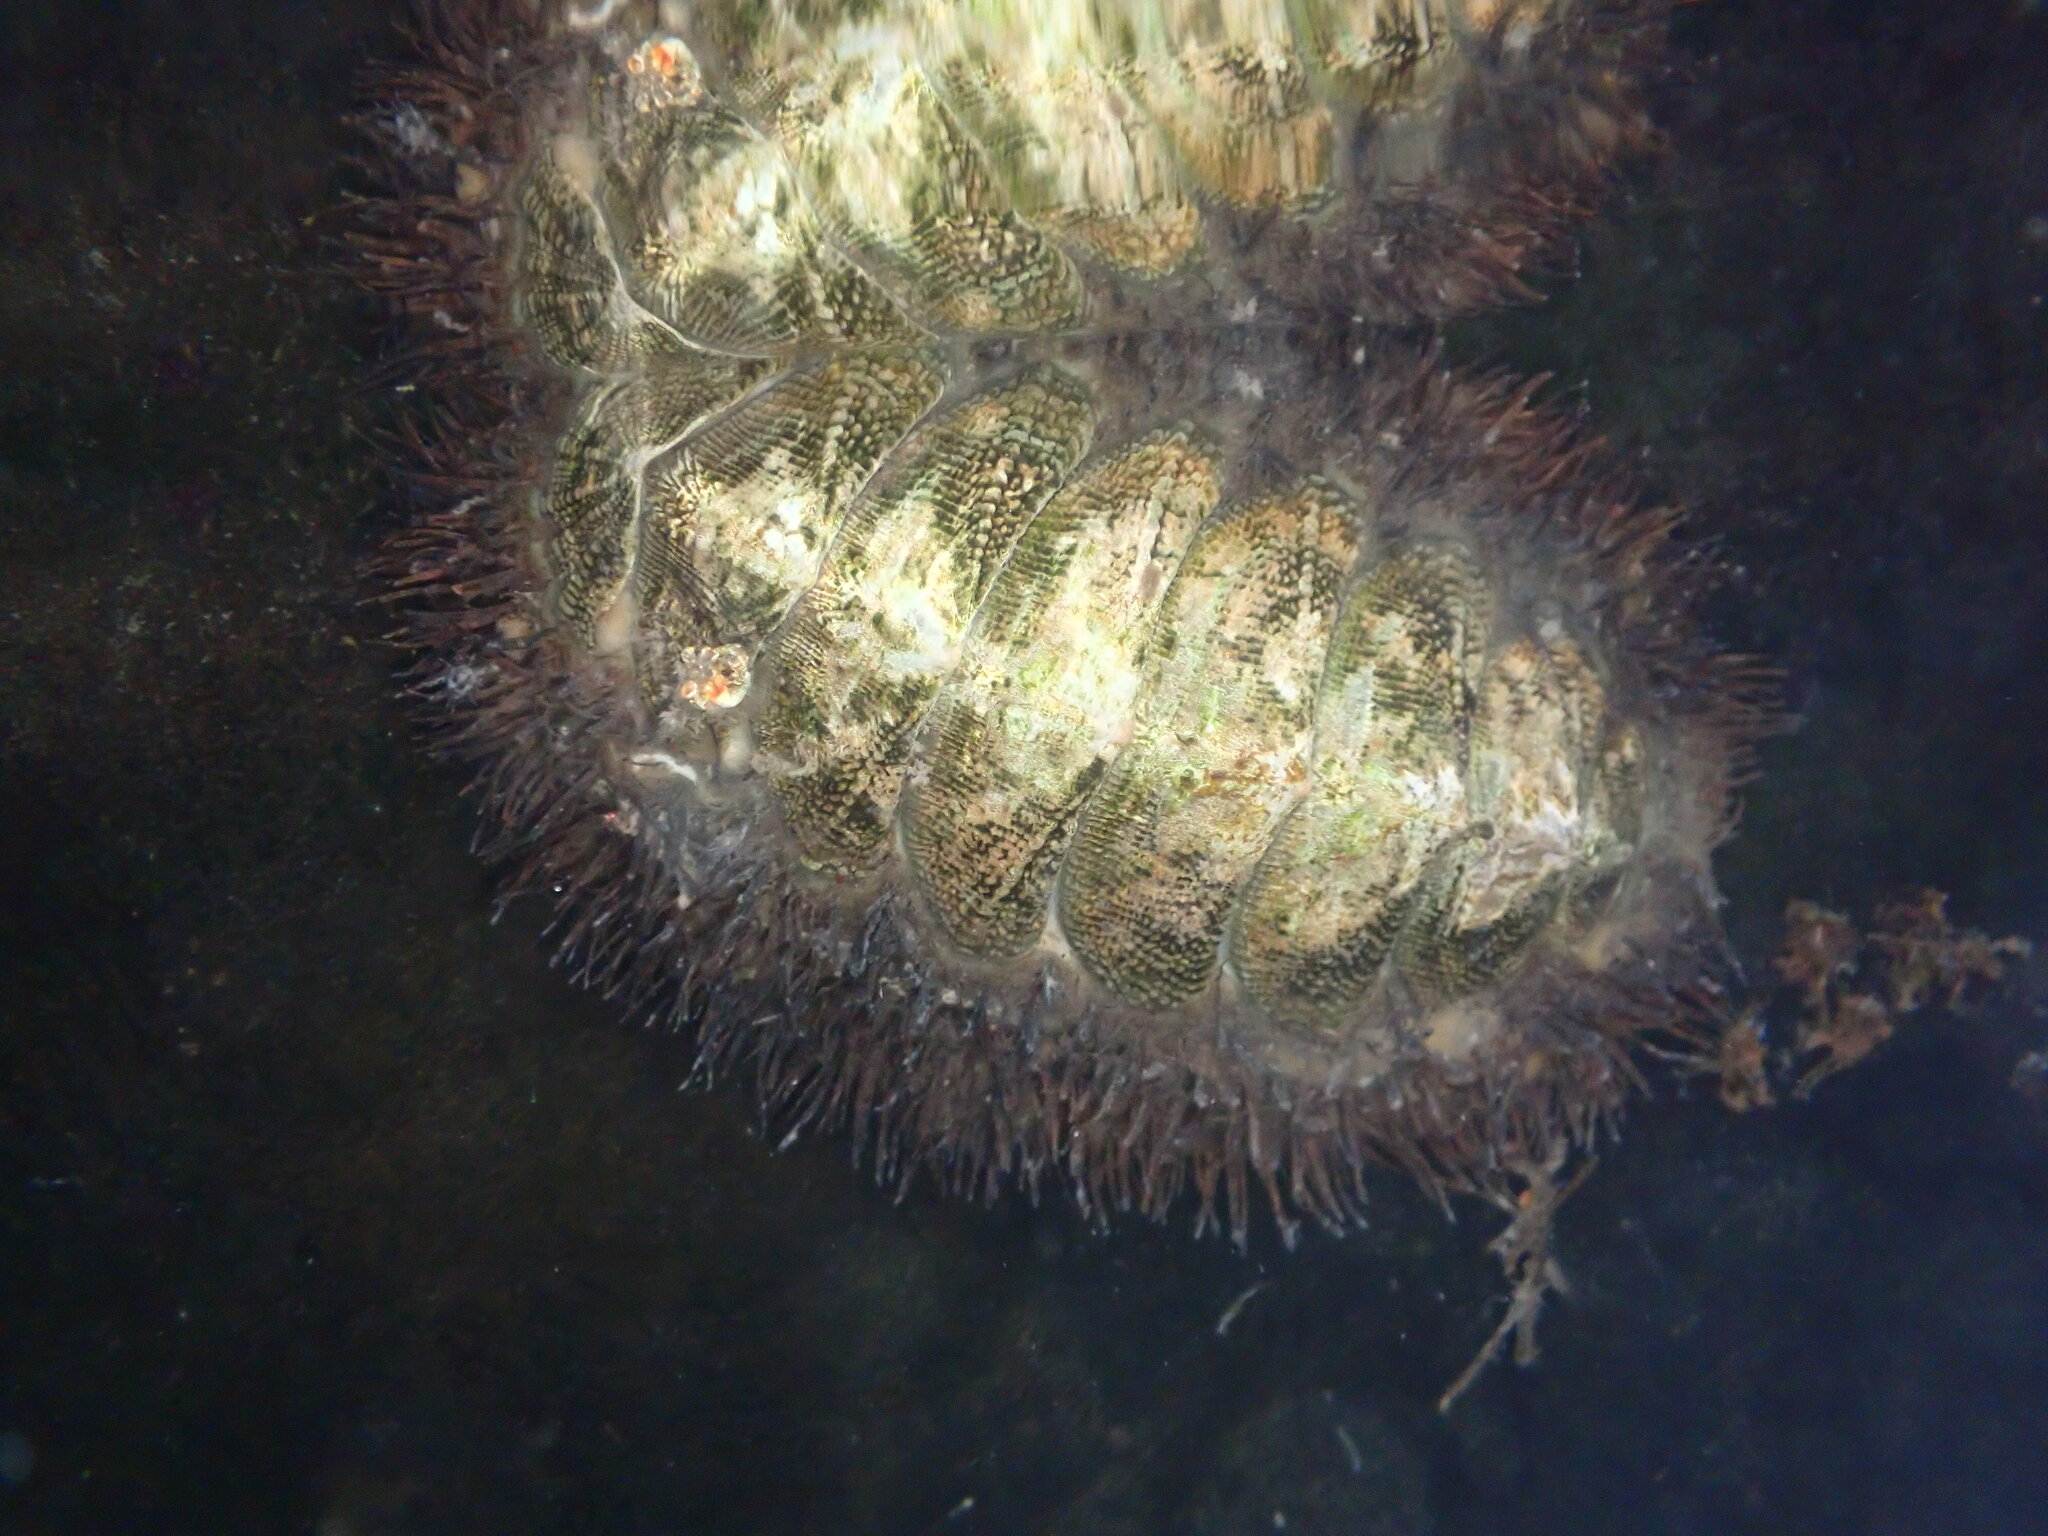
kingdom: Animalia
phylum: Mollusca
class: Polyplacophora
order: Chitonida
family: Mopaliidae
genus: Mopalia
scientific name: Mopalia muscosa
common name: Mossy chiton
